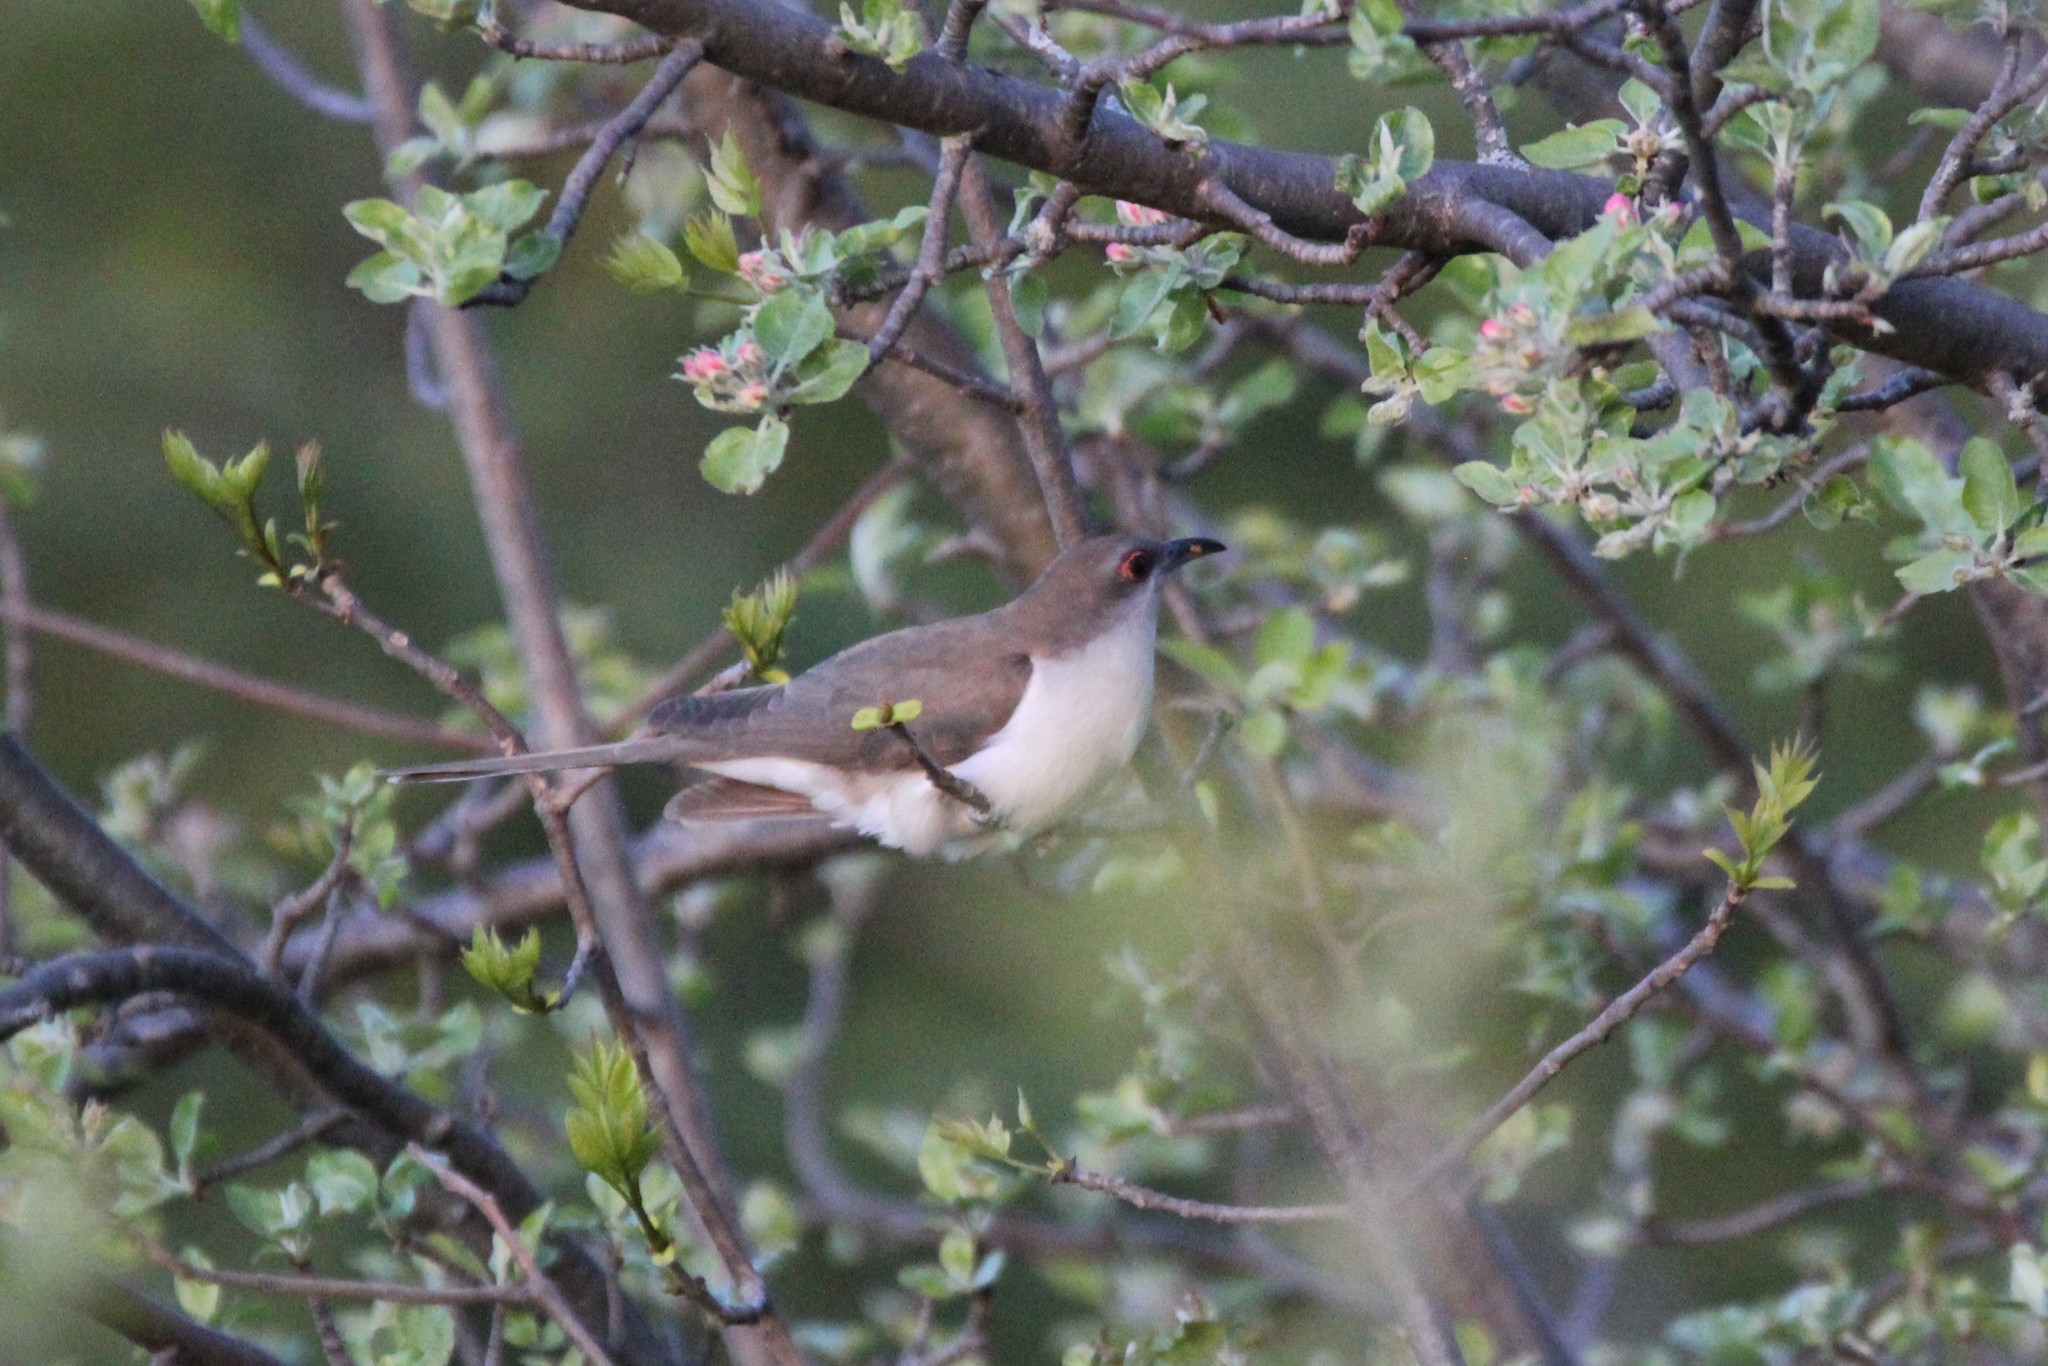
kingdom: Animalia
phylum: Chordata
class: Aves
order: Cuculiformes
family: Cuculidae
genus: Coccyzus
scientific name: Coccyzus erythropthalmus
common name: Black-billed cuckoo
